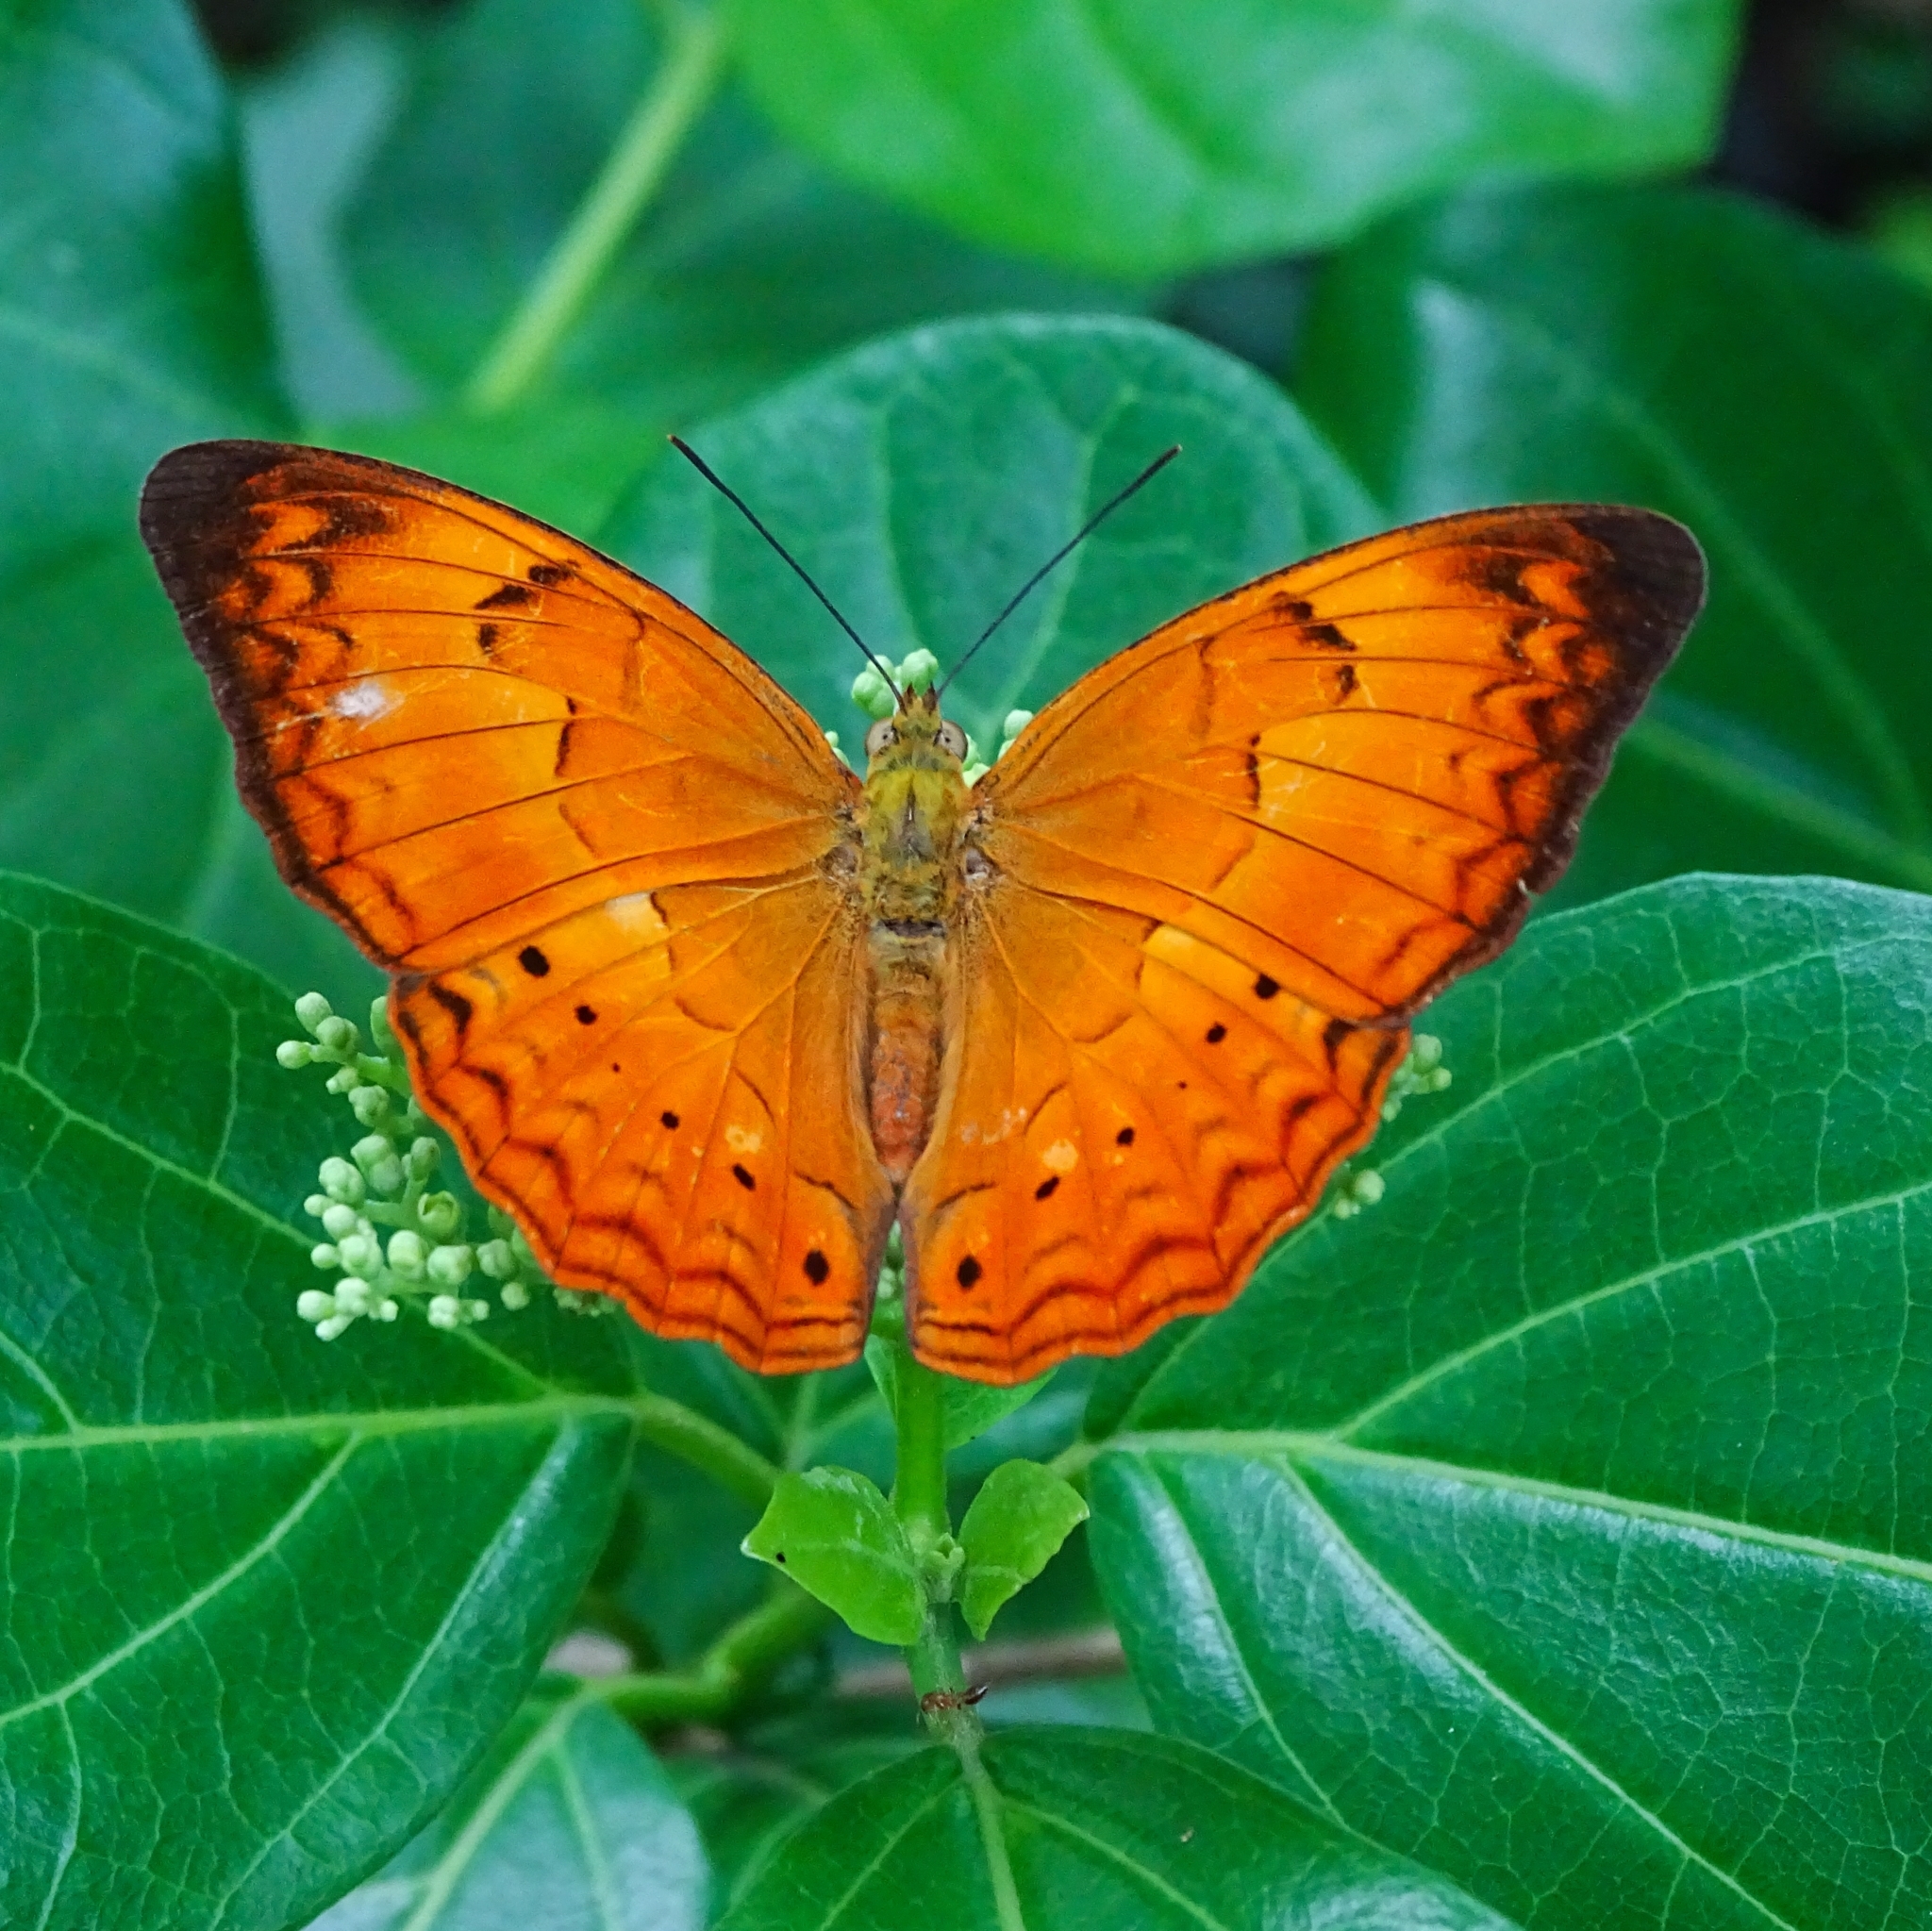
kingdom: Animalia
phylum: Arthropoda
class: Insecta
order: Lepidoptera
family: Nymphalidae
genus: Cirrochroa
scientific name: Cirrochroa thais
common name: Tamil yeoman
